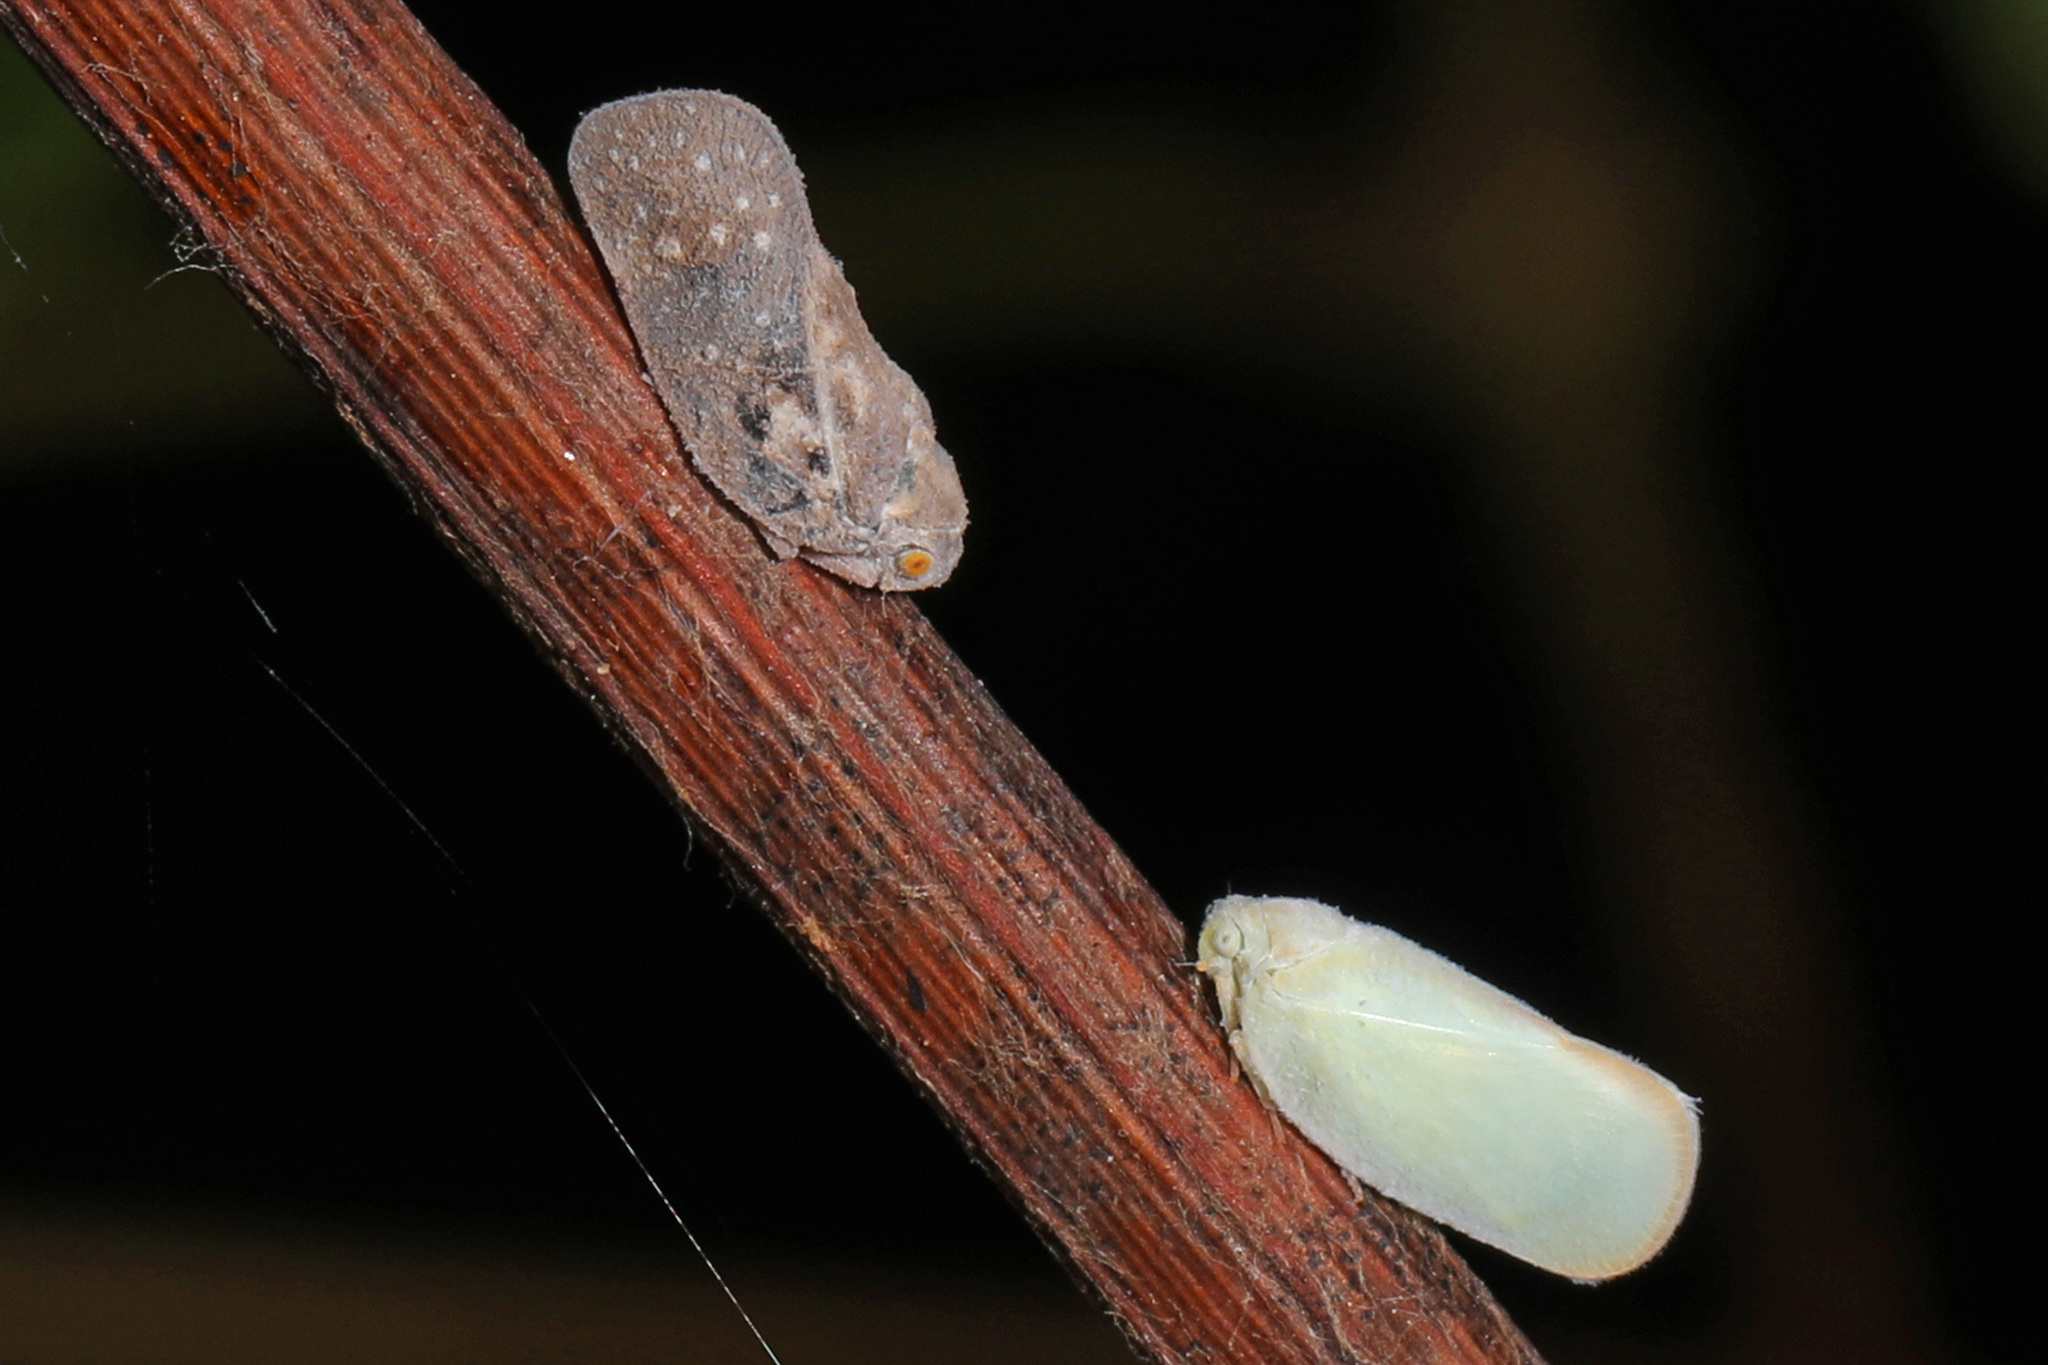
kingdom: Animalia
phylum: Arthropoda
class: Insecta
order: Hemiptera
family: Flatidae
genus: Metcalfa
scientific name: Metcalfa pruinosa
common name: Citrus flatid planthopper
